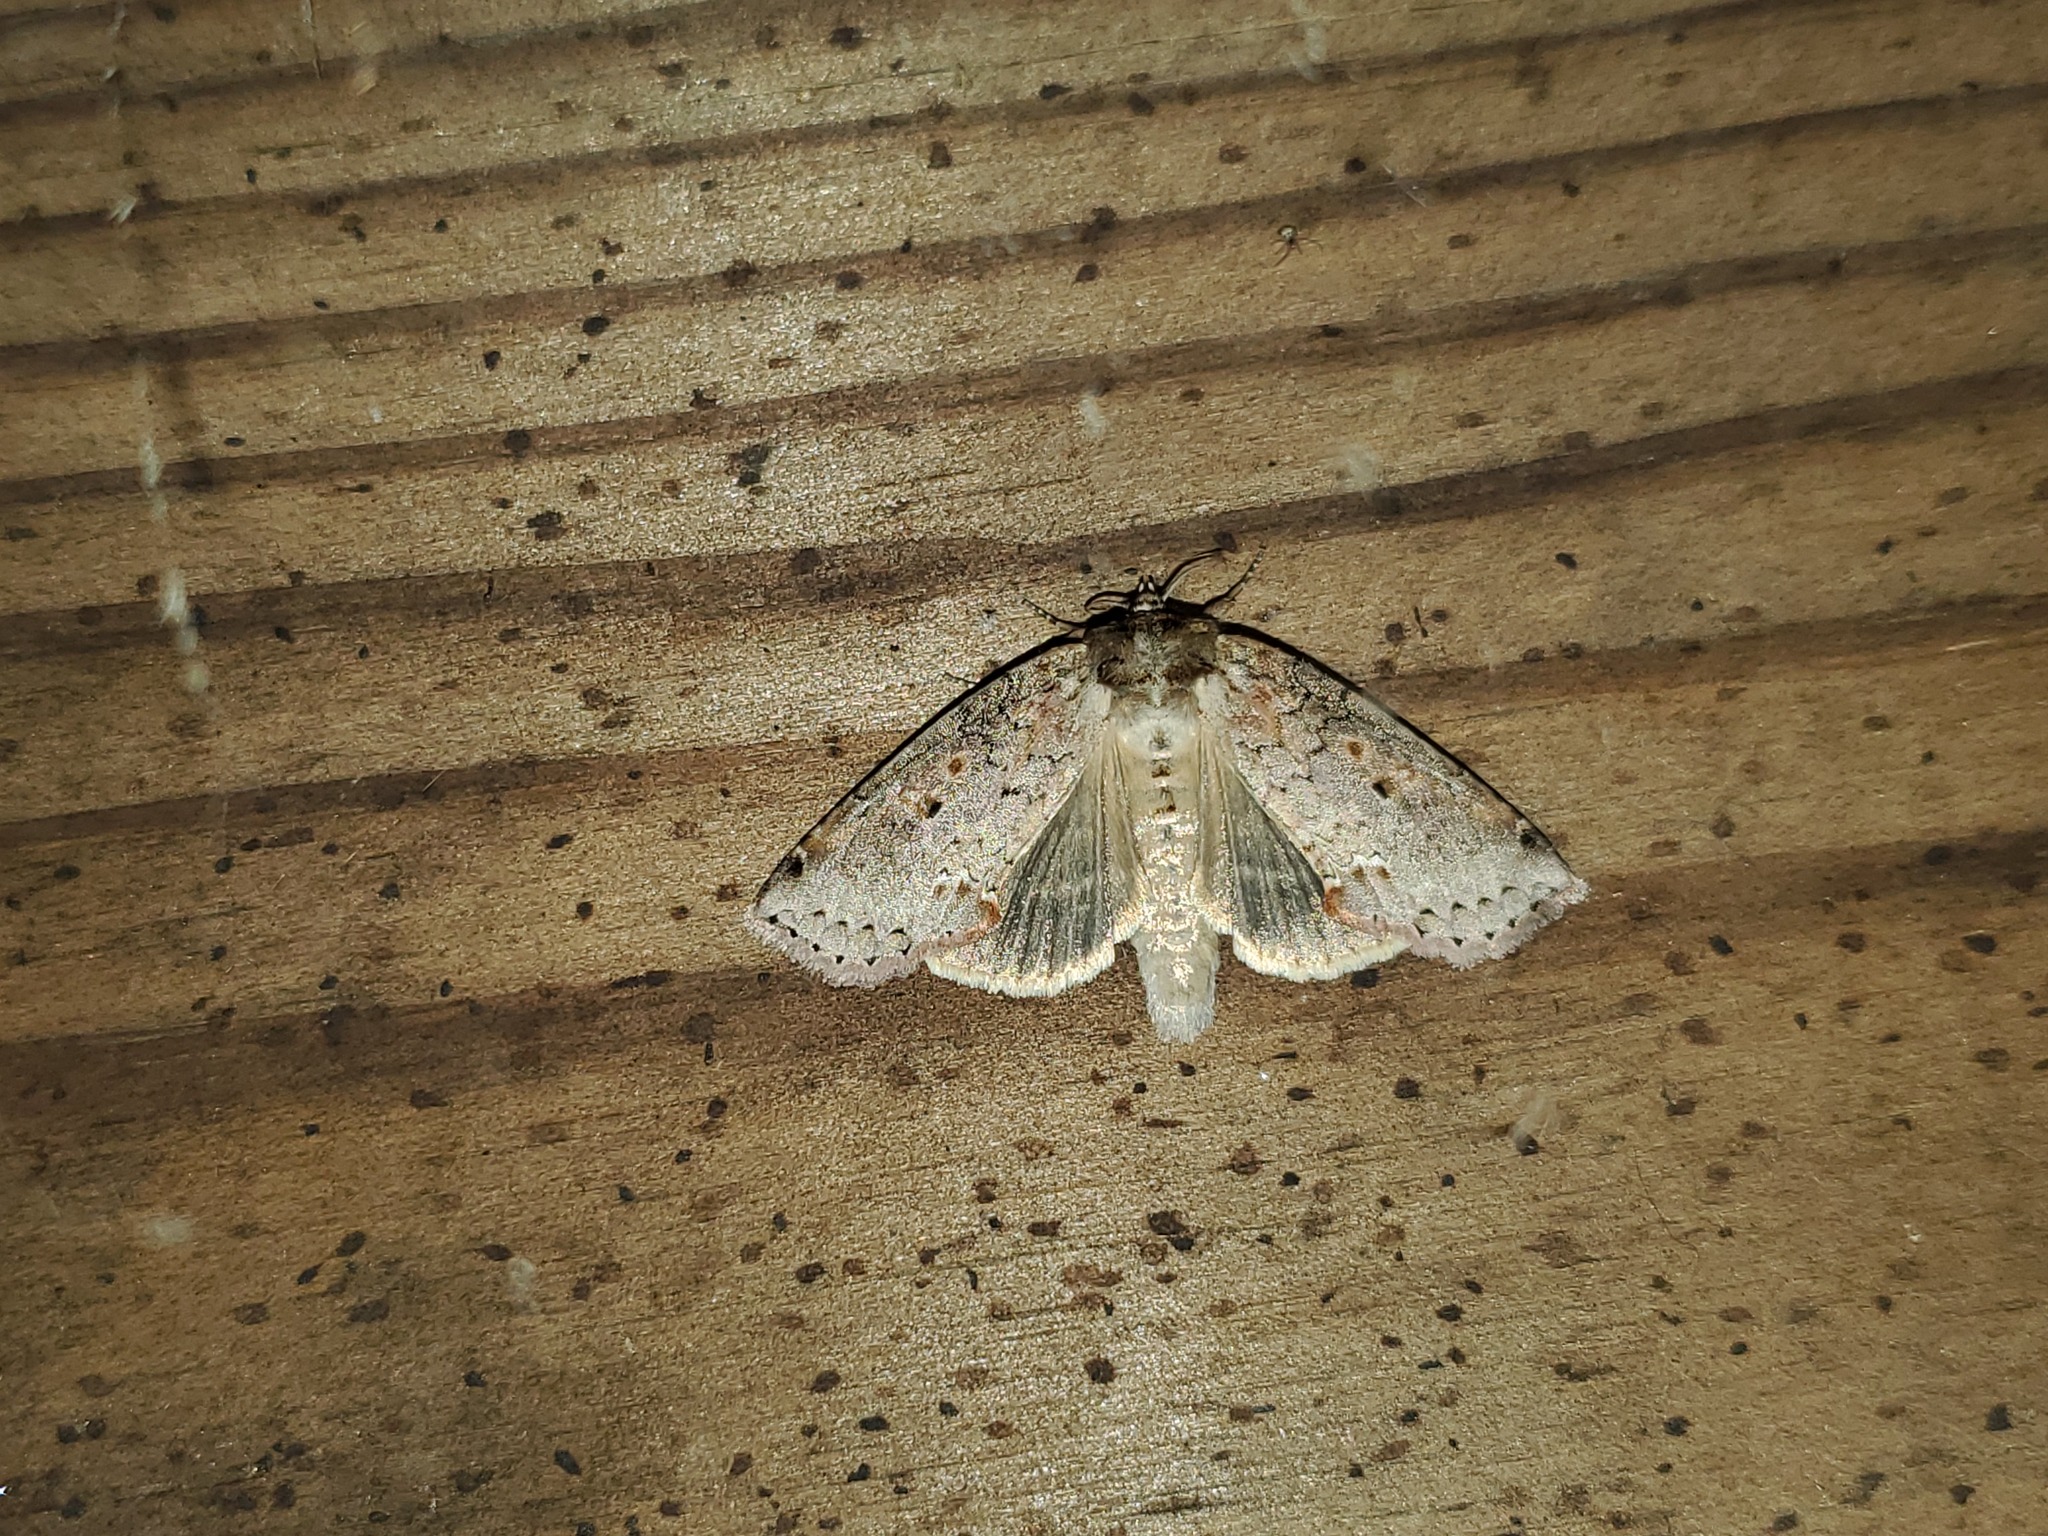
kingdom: Animalia
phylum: Arthropoda
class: Insecta
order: Lepidoptera
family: Drepanidae
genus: Pseudothyatira
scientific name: Pseudothyatira cymatophoroides
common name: Tufted thyatirid moth
